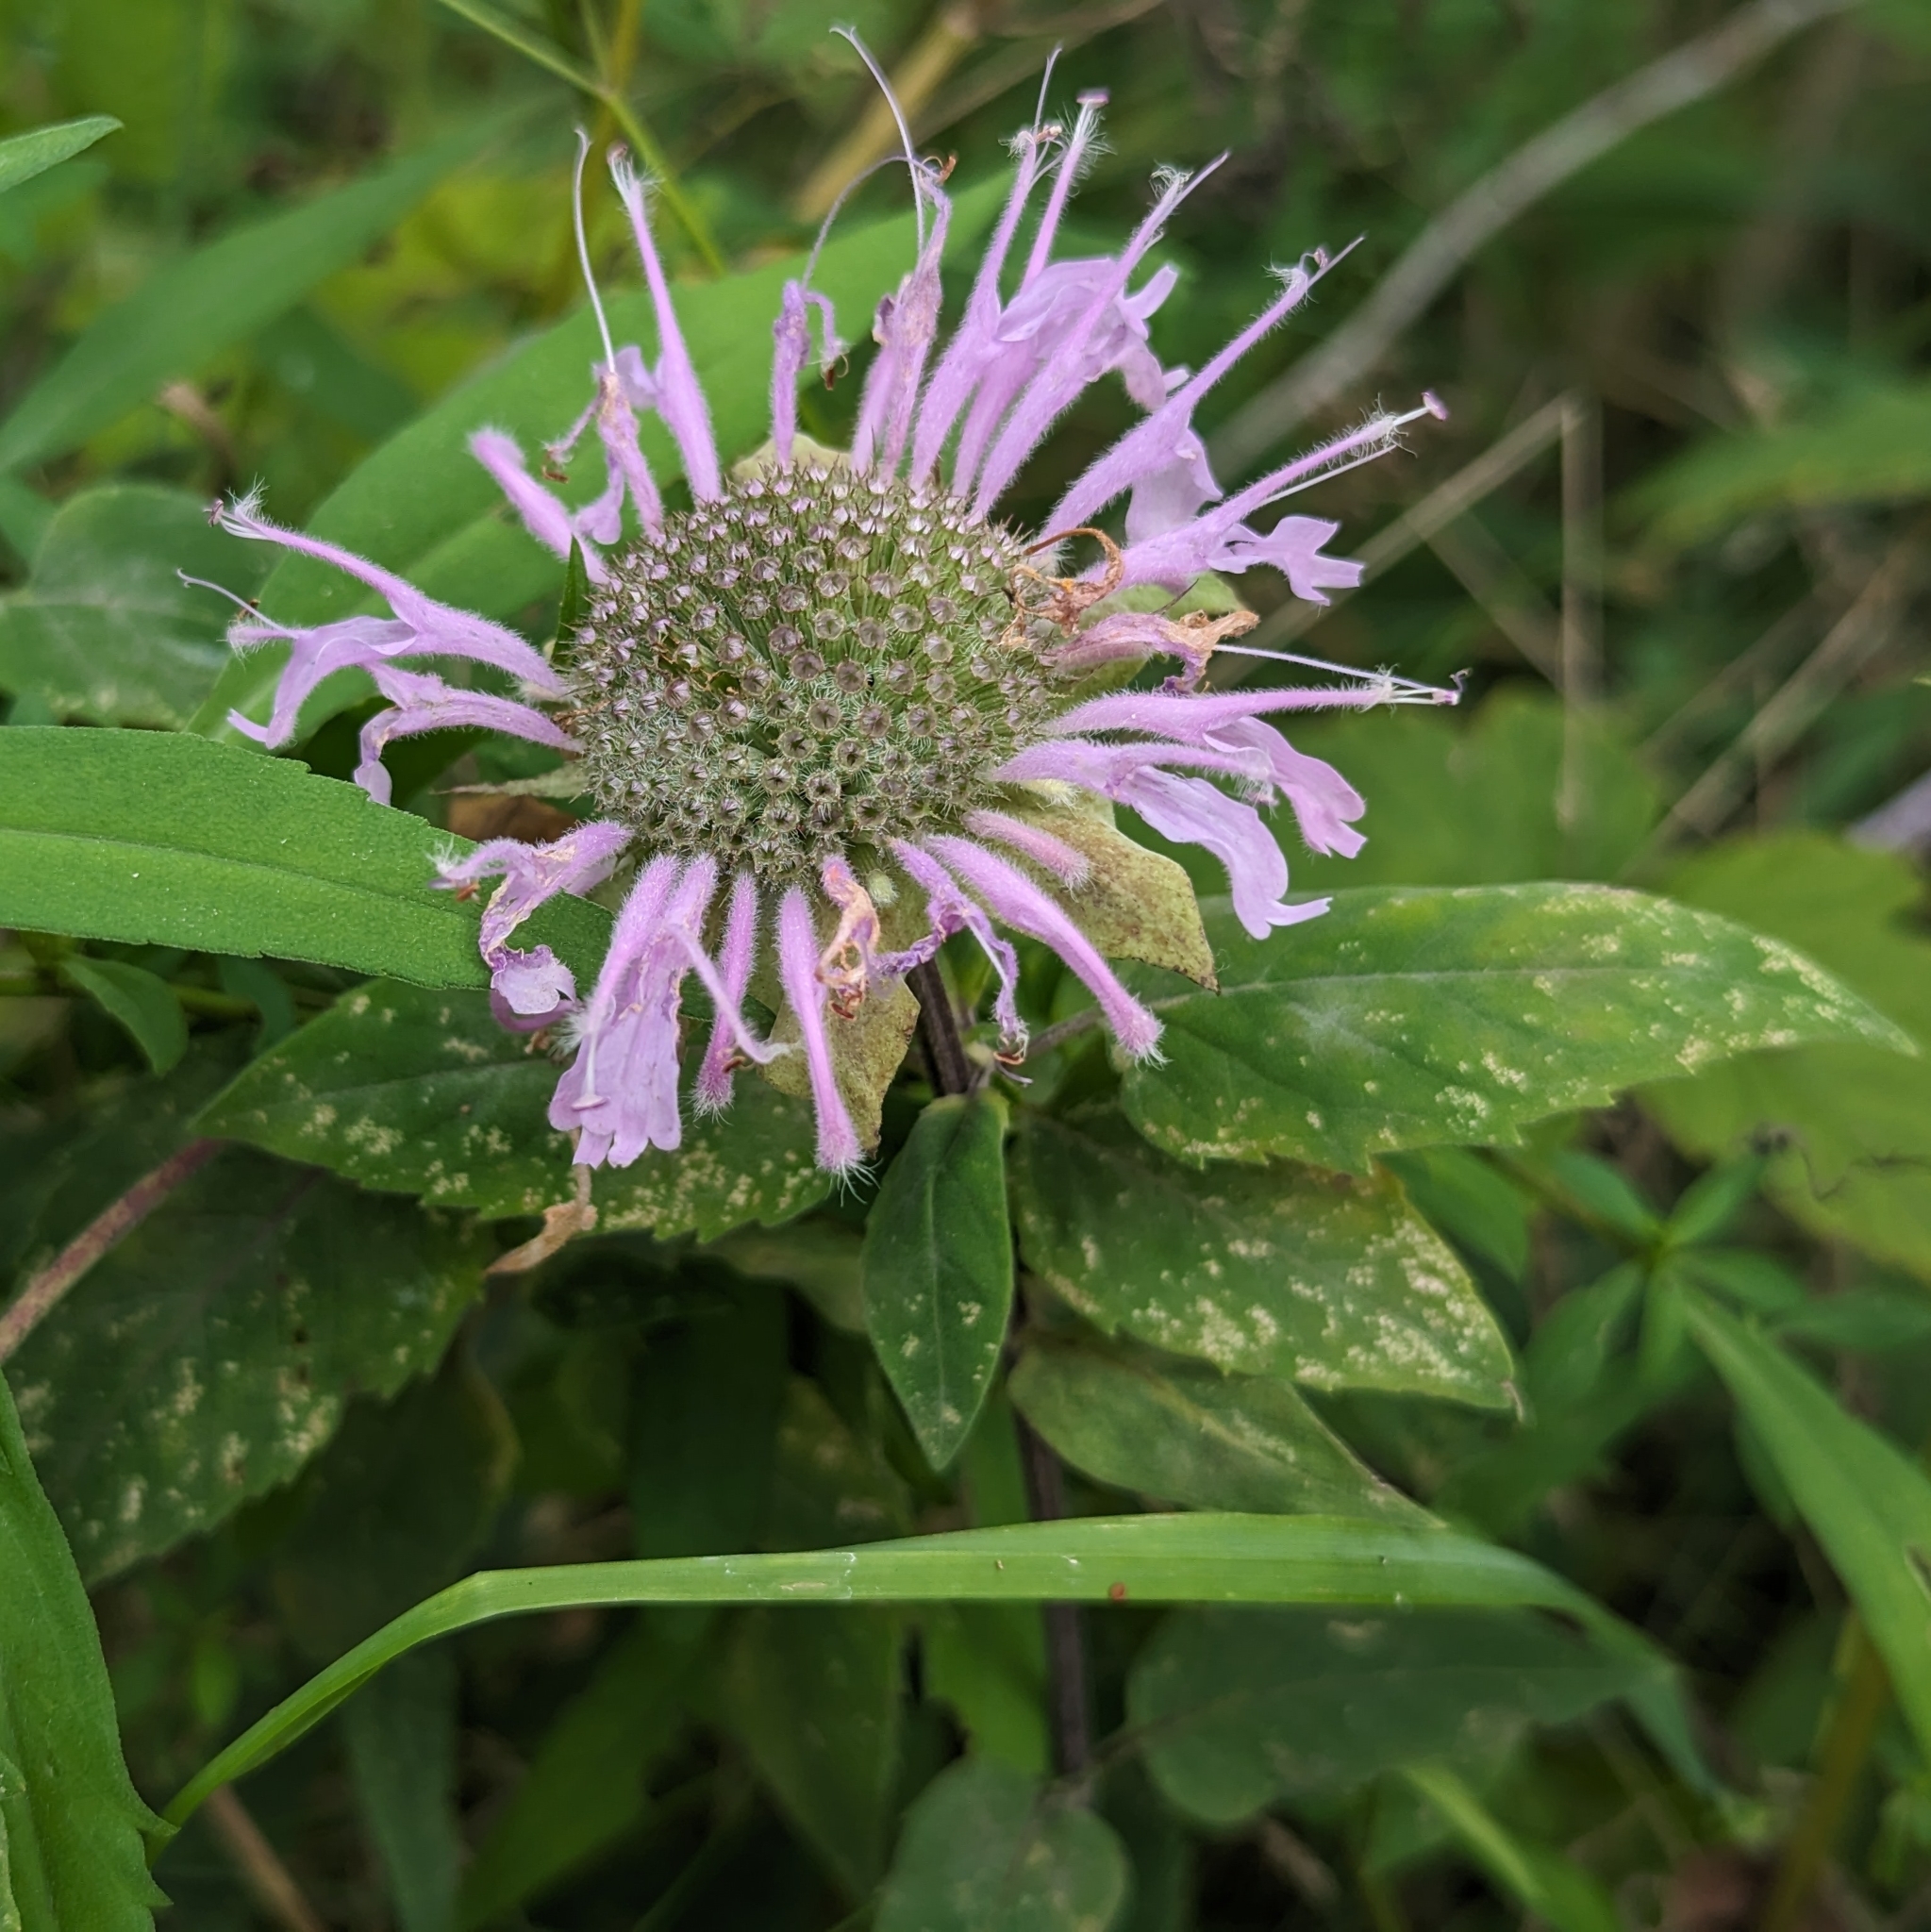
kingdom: Plantae
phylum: Tracheophyta
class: Magnoliopsida
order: Lamiales
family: Lamiaceae
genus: Monarda
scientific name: Monarda fistulosa
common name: Purple beebalm
